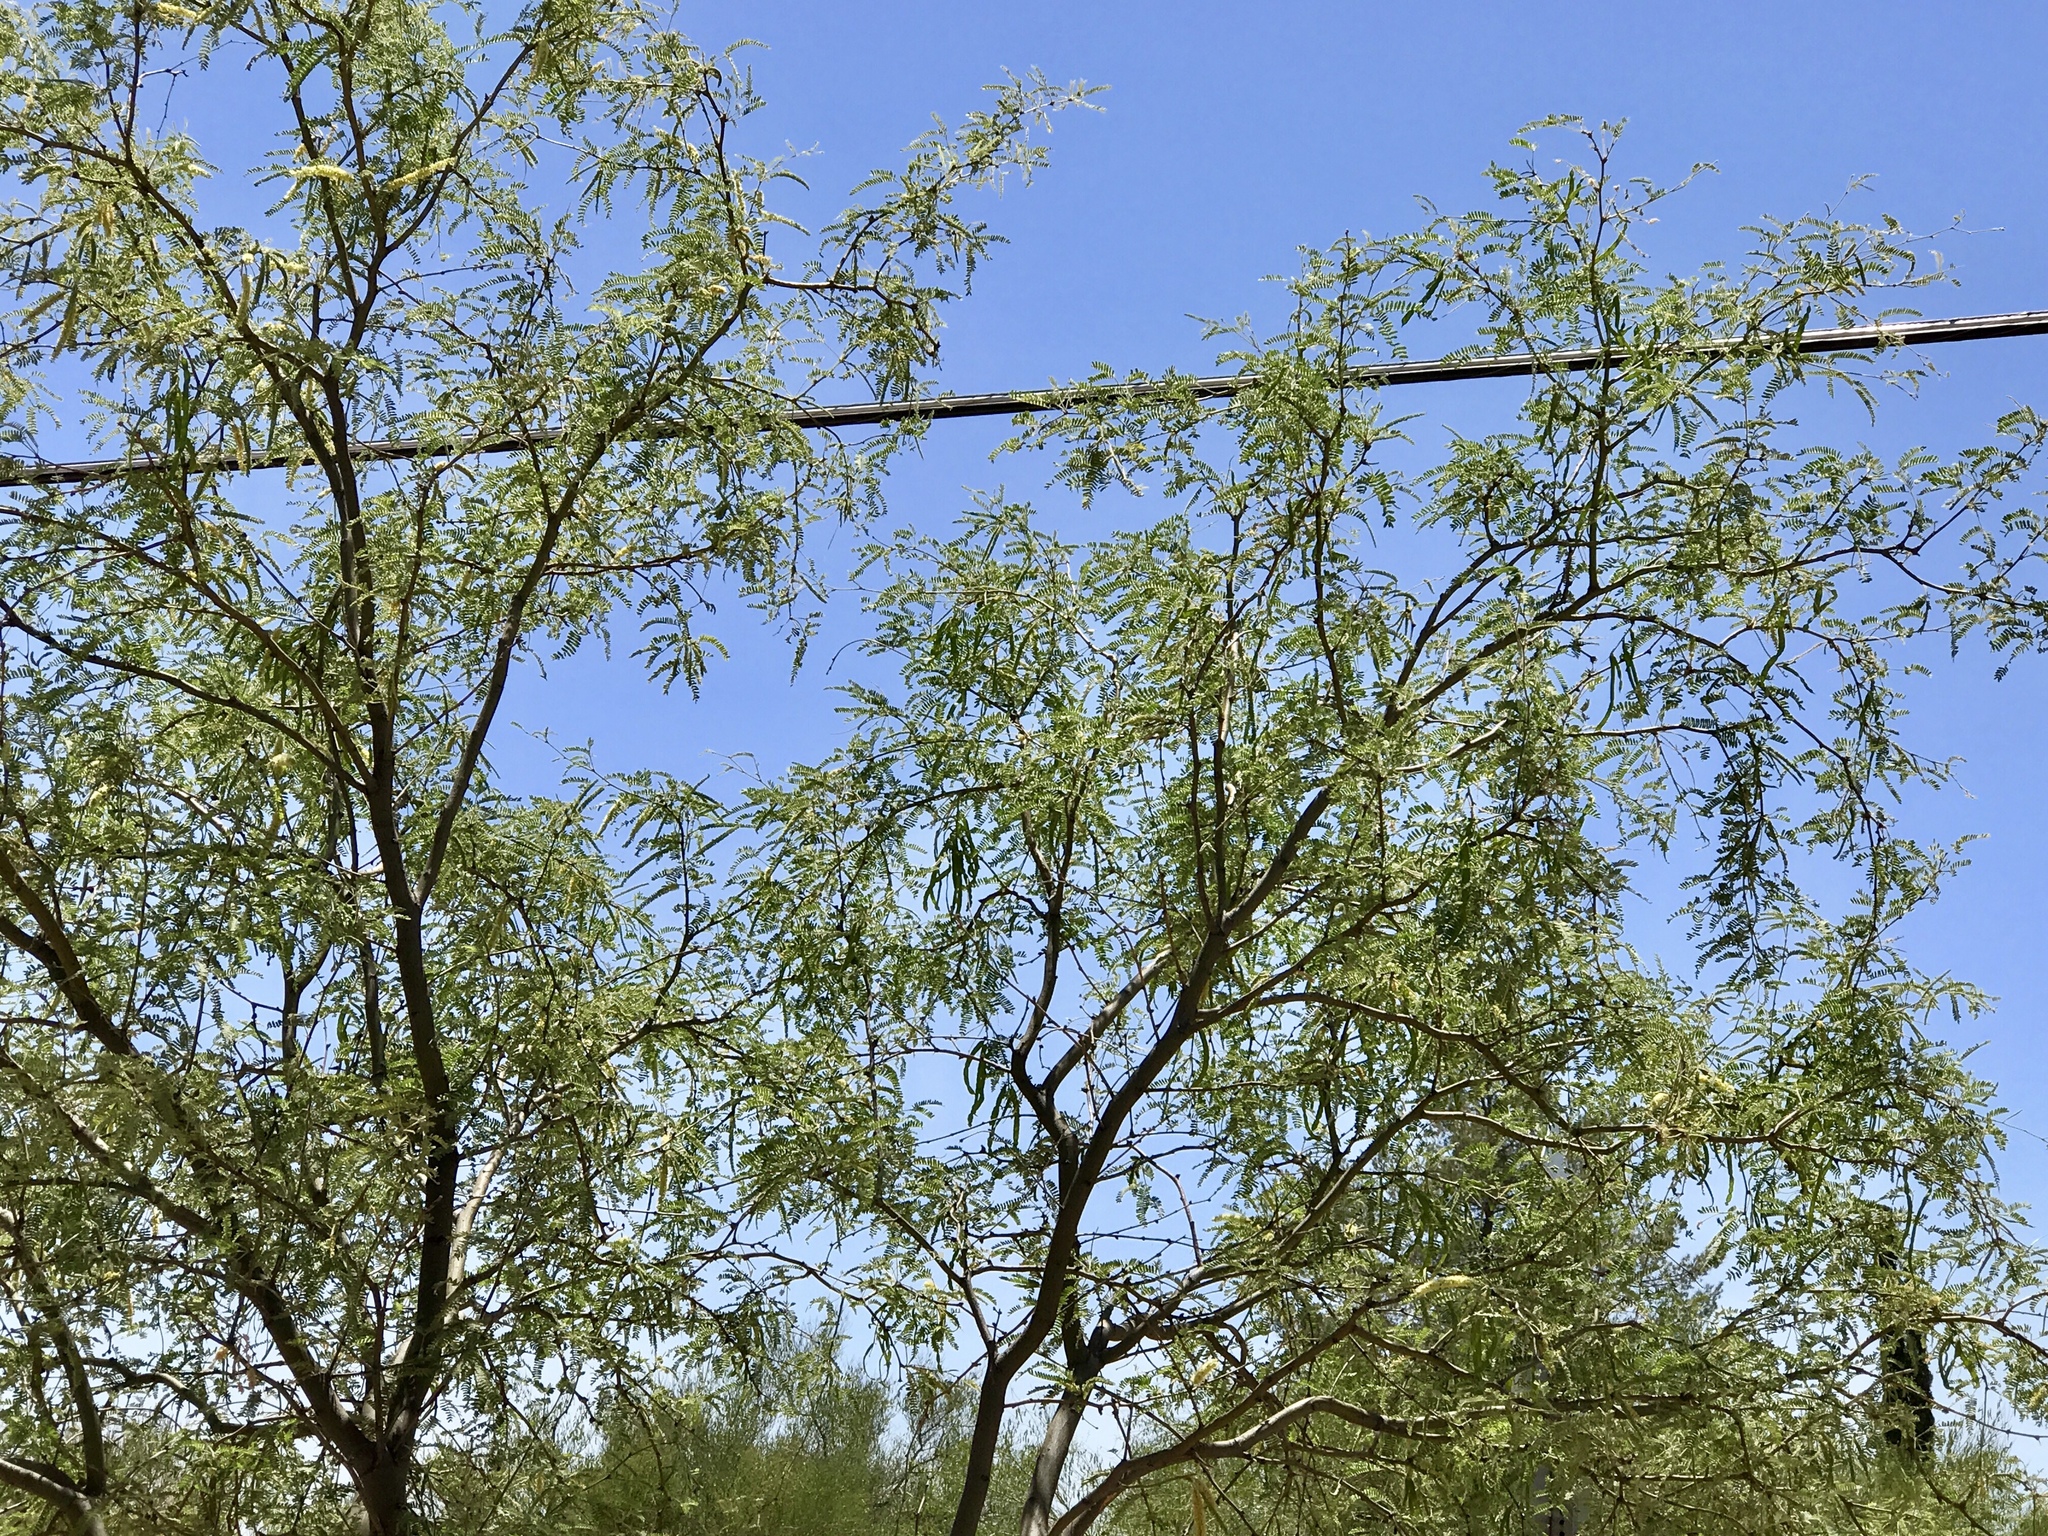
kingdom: Plantae
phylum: Tracheophyta
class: Magnoliopsida
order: Fabales
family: Fabaceae
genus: Prosopis
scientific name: Prosopis velutina
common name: Velvet mesquite
